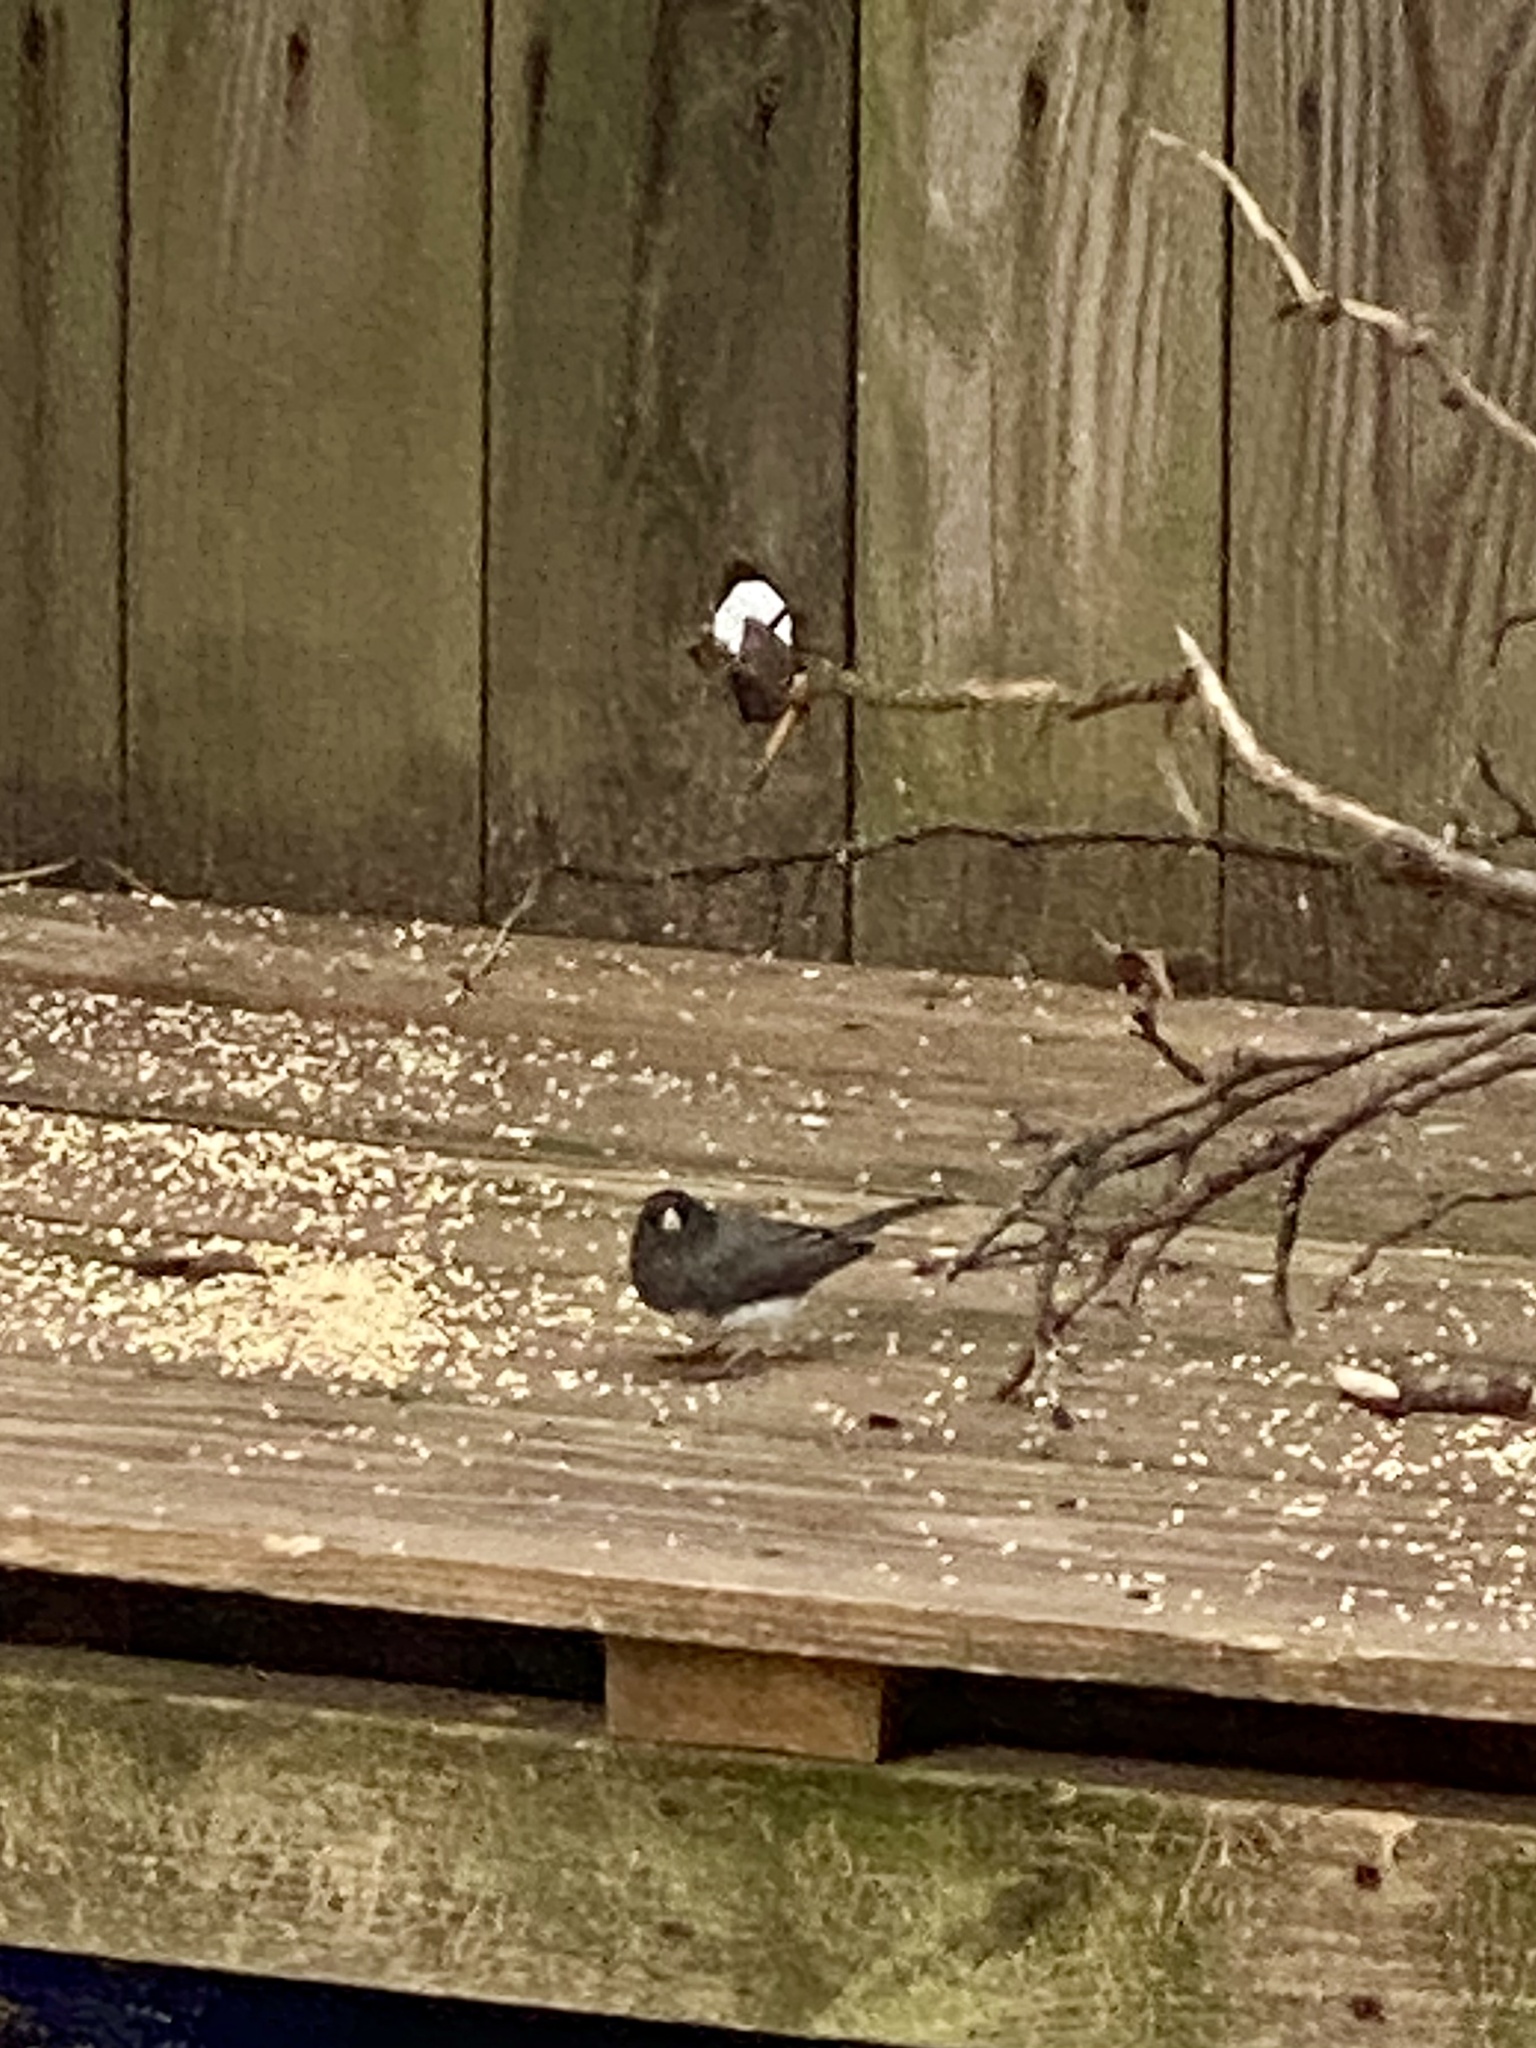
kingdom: Animalia
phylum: Chordata
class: Aves
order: Passeriformes
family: Passerellidae
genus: Junco
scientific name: Junco hyemalis
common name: Dark-eyed junco
